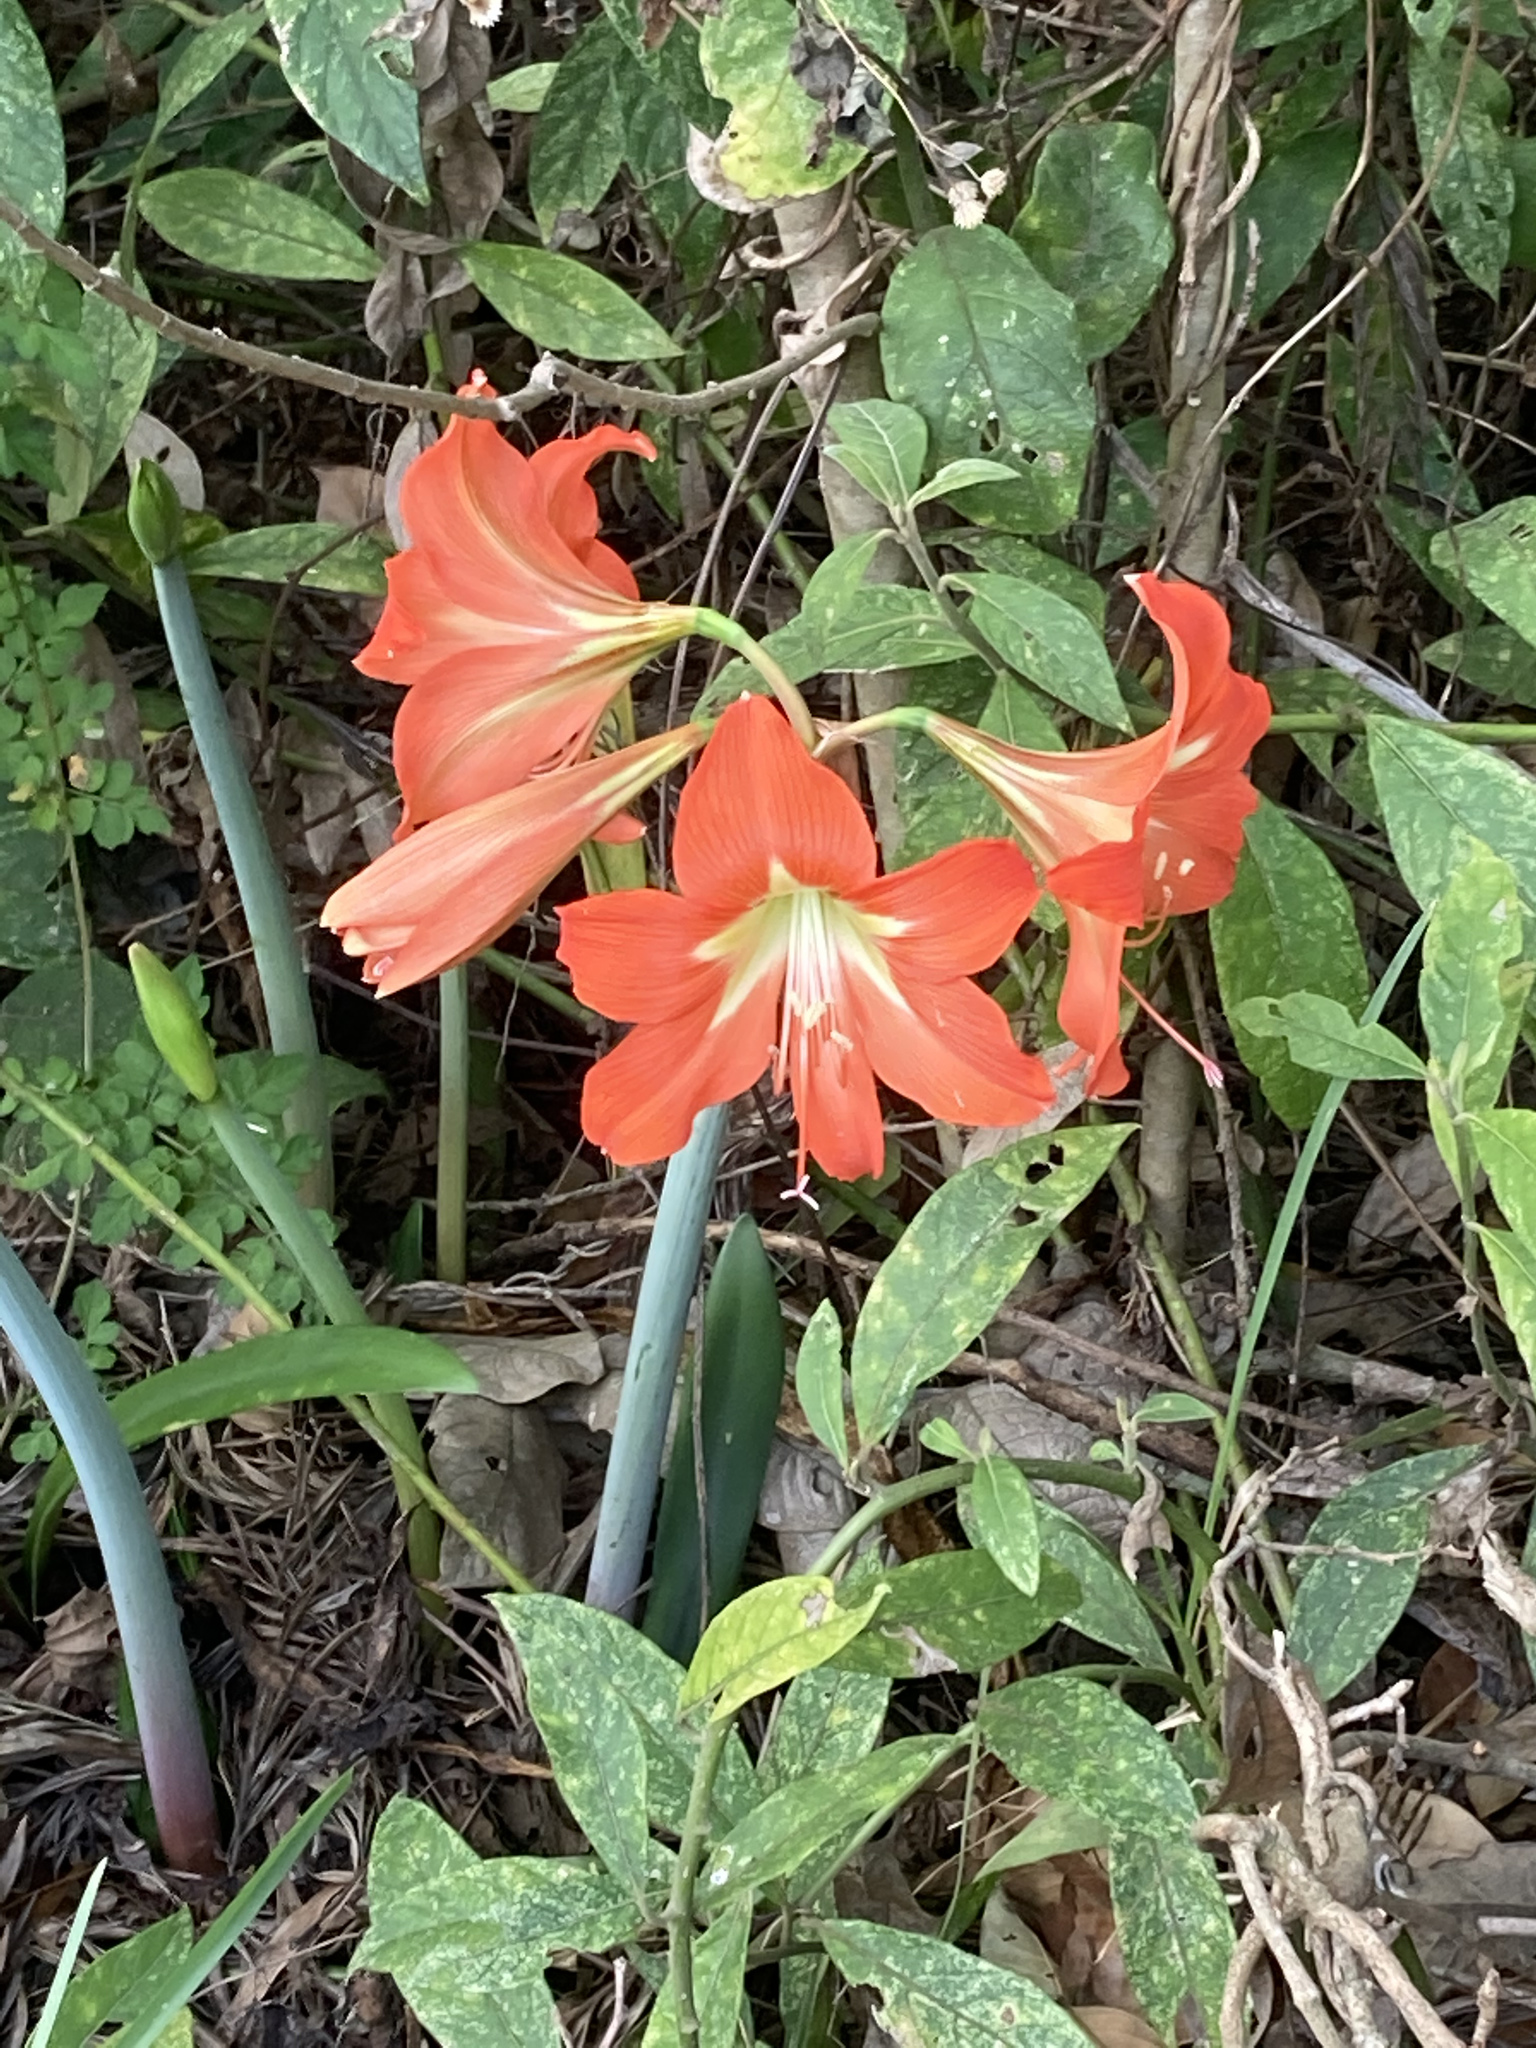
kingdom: Plantae
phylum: Tracheophyta
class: Liliopsida
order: Asparagales
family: Amaryllidaceae
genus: Hippeastrum
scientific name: Hippeastrum reginae
